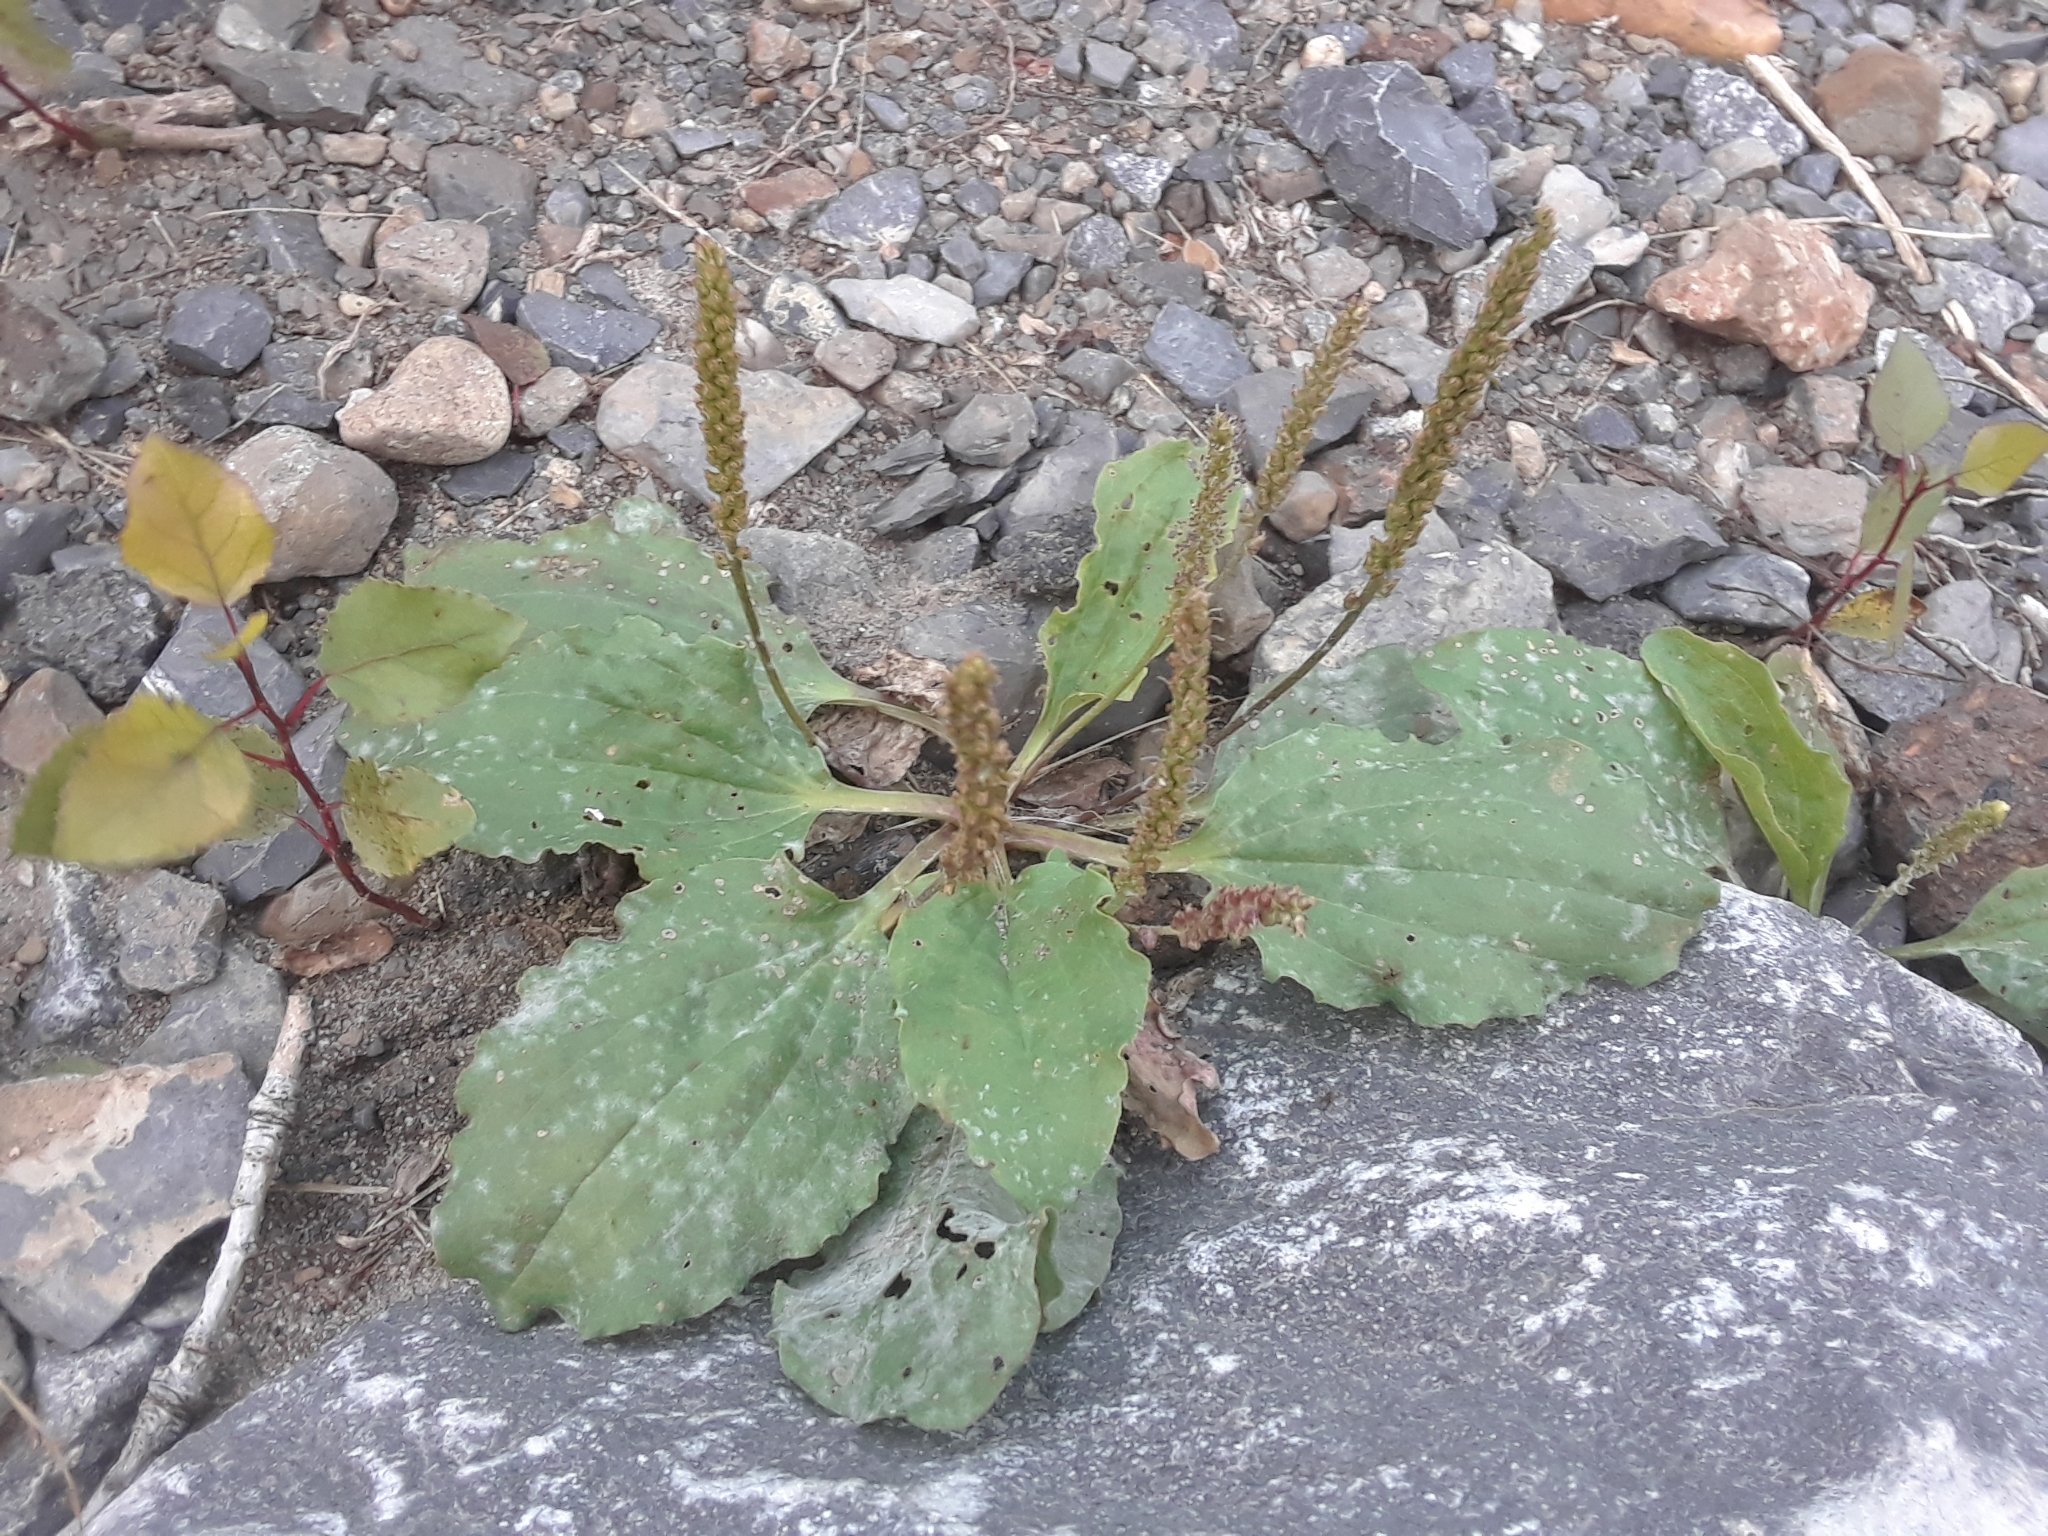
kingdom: Plantae
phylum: Tracheophyta
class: Magnoliopsida
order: Lamiales
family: Plantaginaceae
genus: Plantago
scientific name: Plantago major
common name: Common plantain
